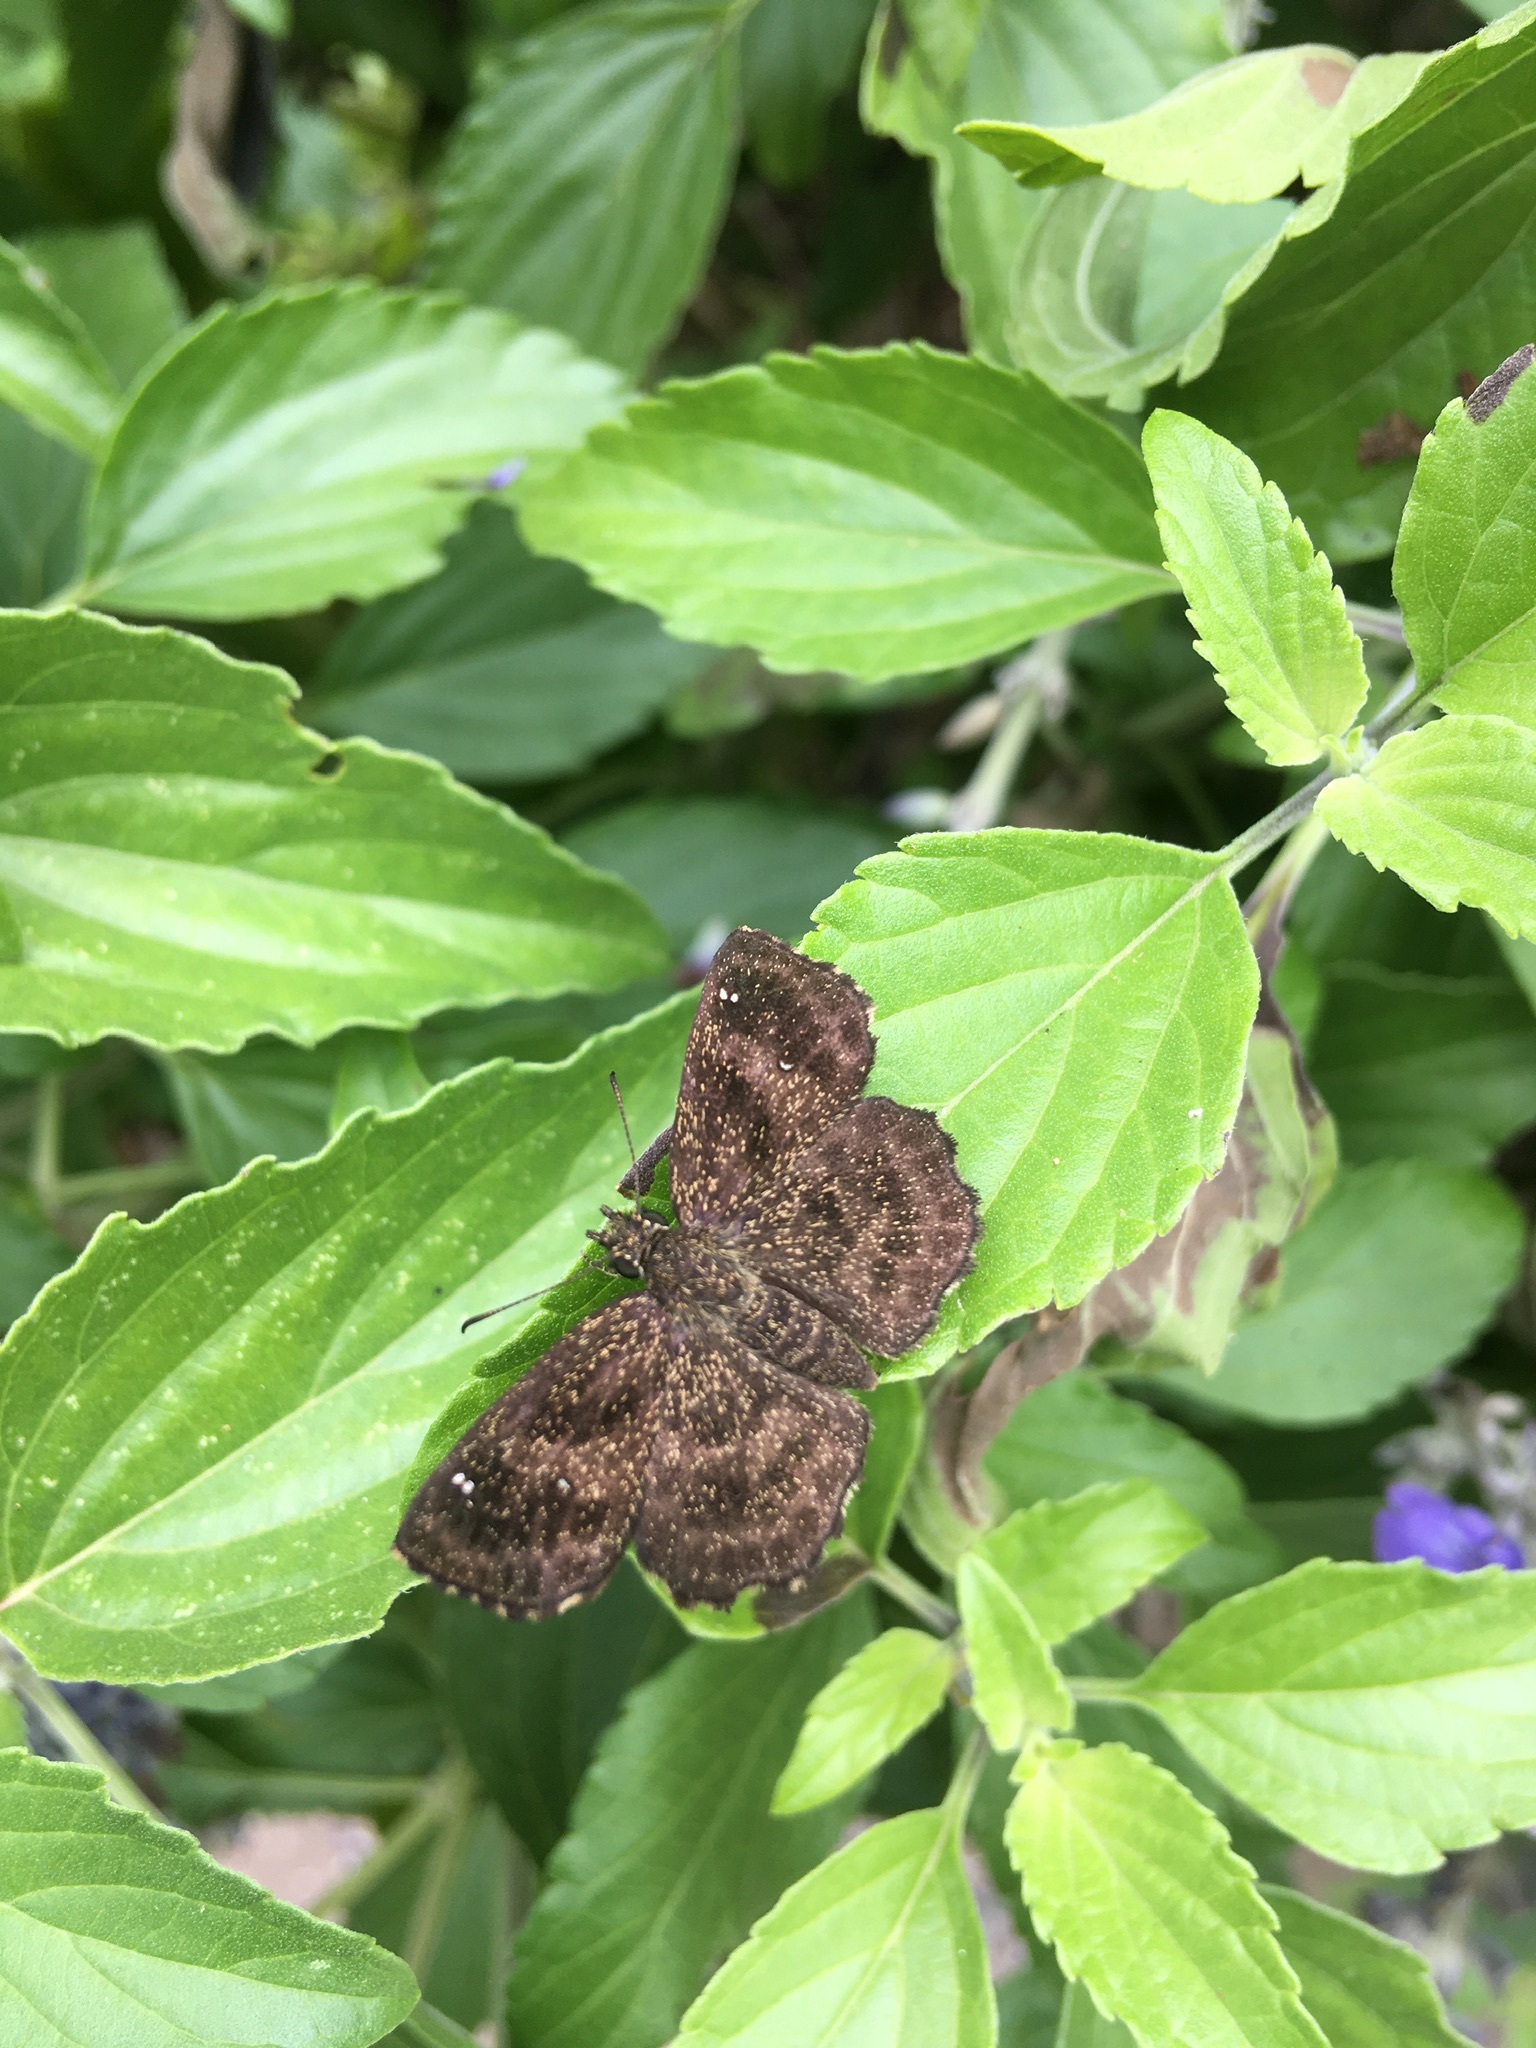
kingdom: Animalia
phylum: Arthropoda
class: Insecta
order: Lepidoptera
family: Hesperiidae
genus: Staphylus
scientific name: Staphylus mazans
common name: Mazans scallopwing
